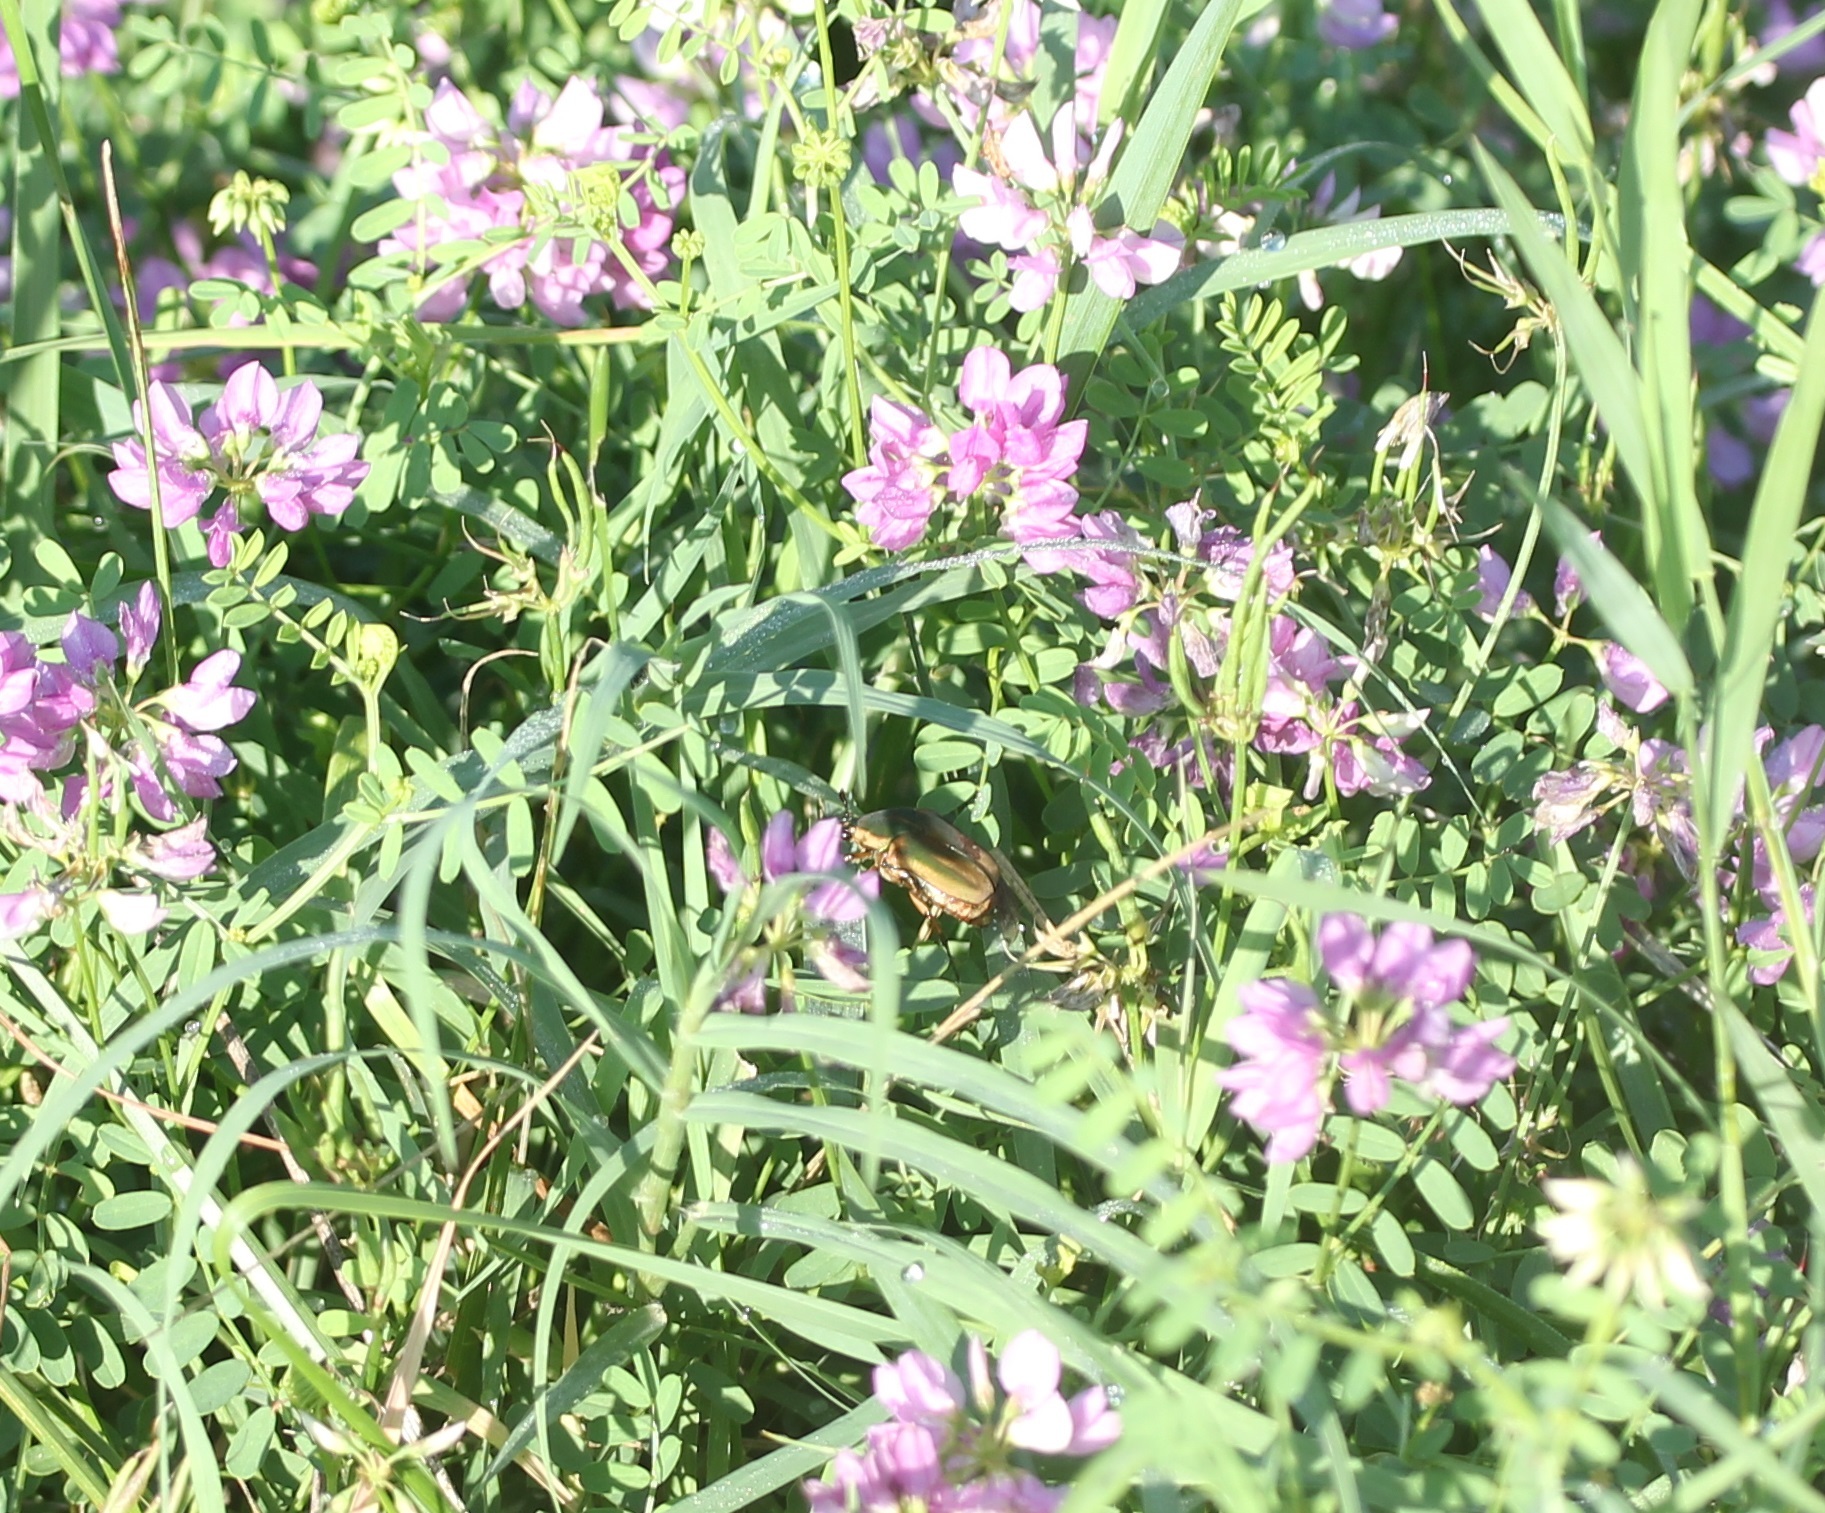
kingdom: Animalia
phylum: Arthropoda
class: Insecta
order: Coleoptera
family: Scarabaeidae
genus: Cotinis
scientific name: Cotinis nitida
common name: Common green june beetle
